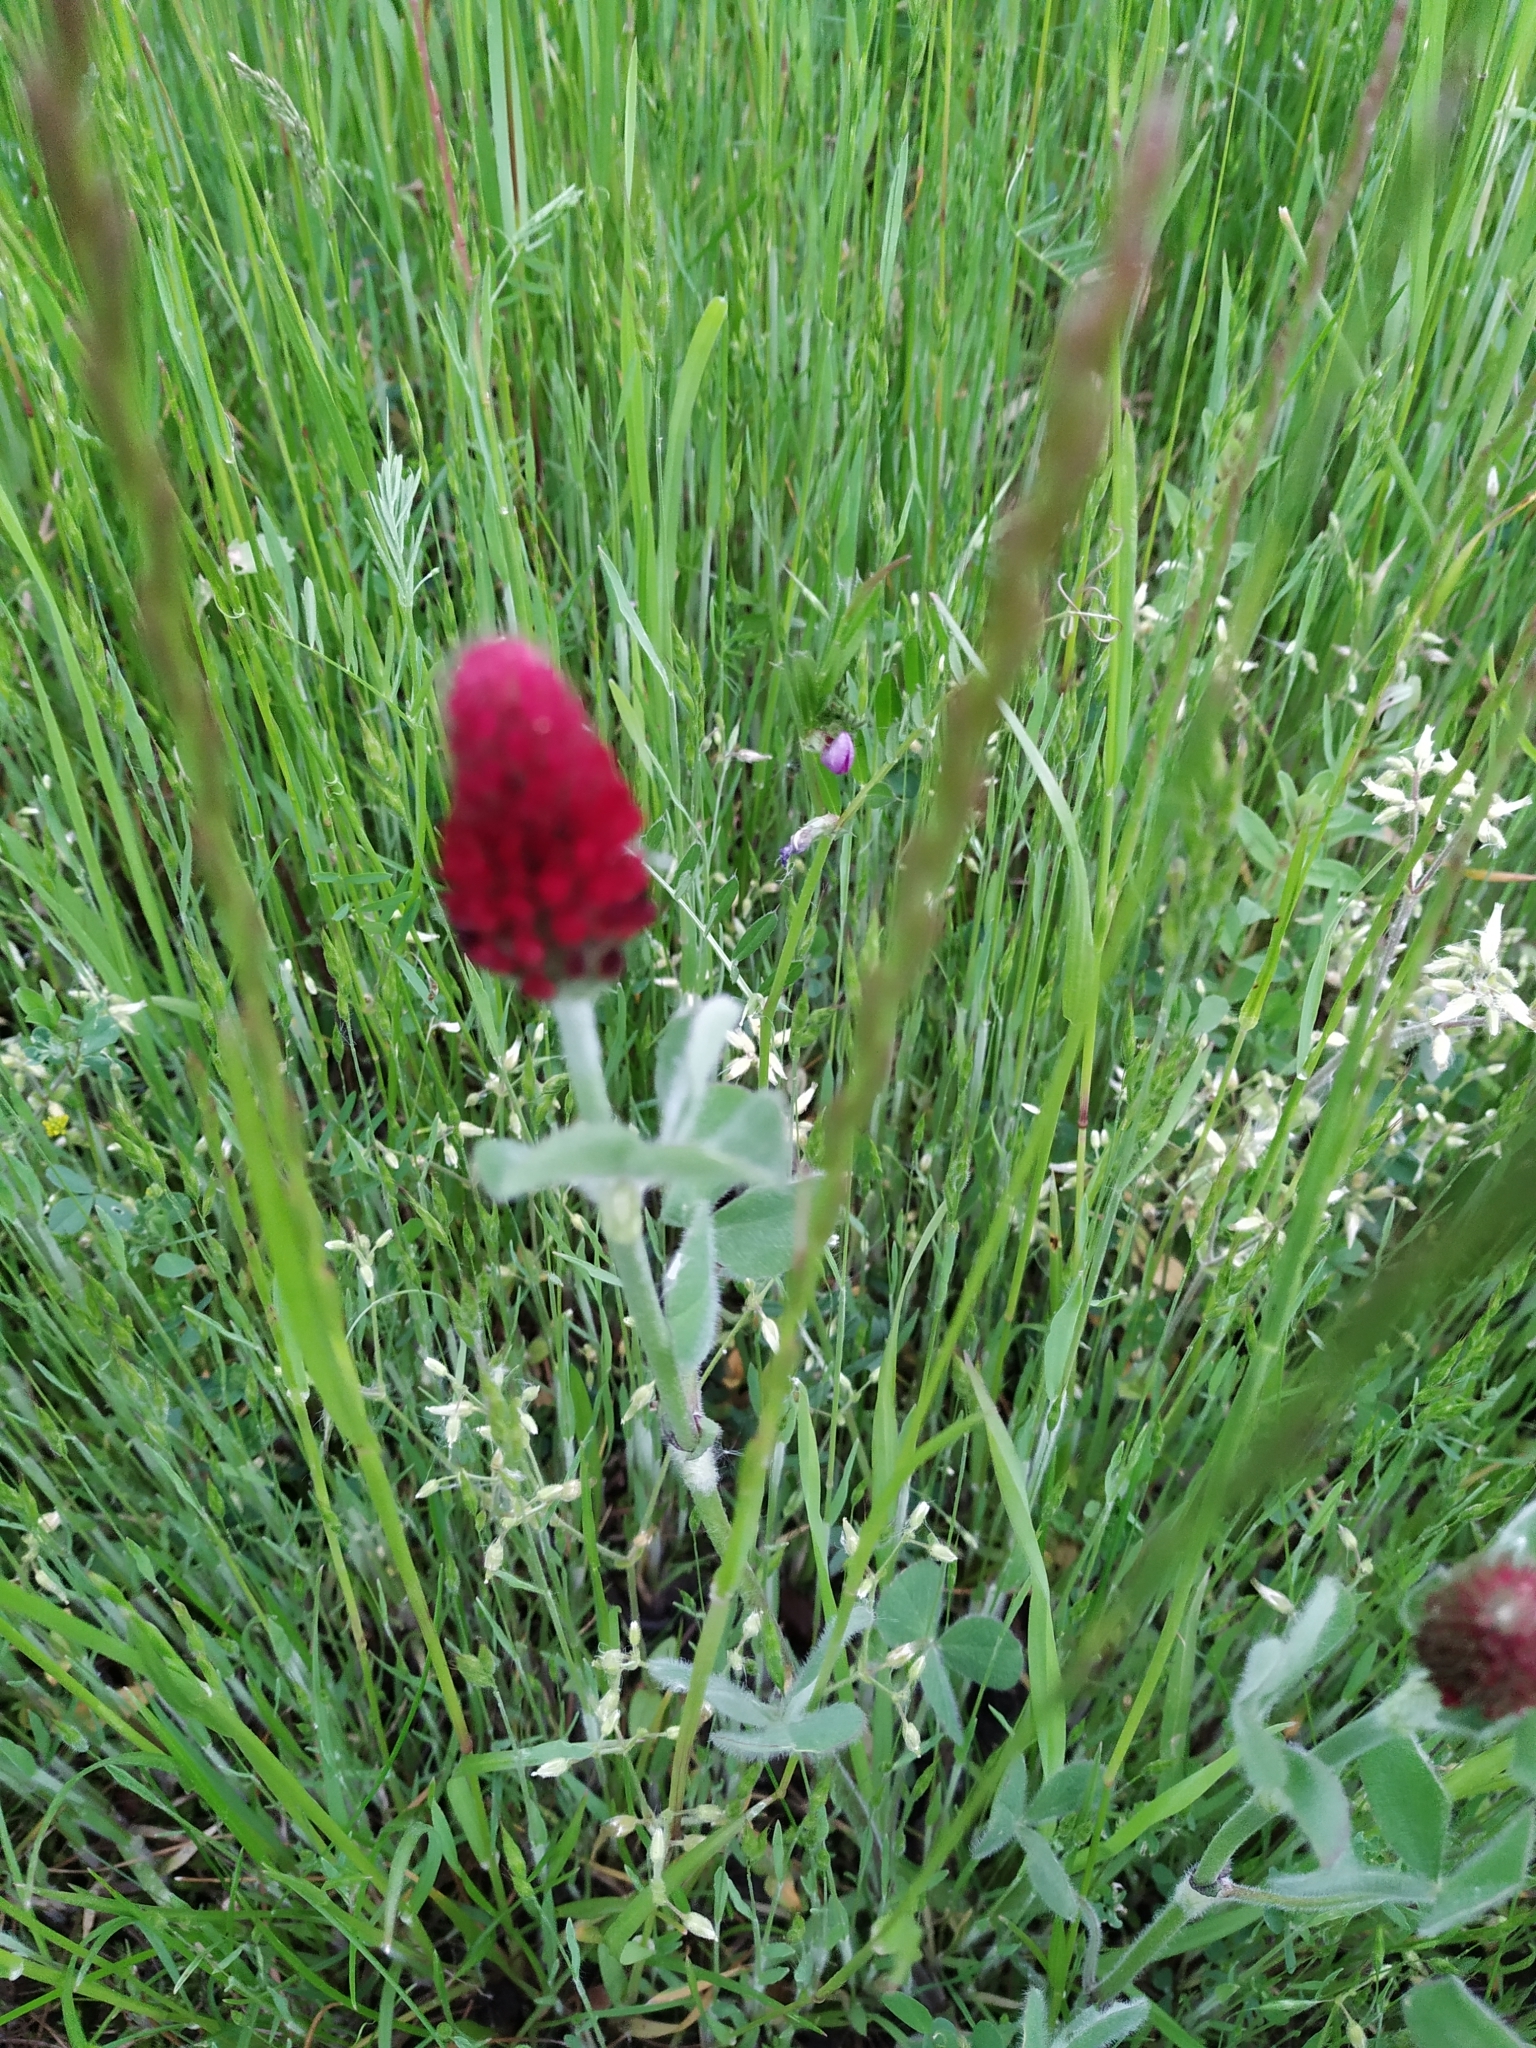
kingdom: Plantae
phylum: Tracheophyta
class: Magnoliopsida
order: Fabales
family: Fabaceae
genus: Trifolium
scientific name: Trifolium incarnatum
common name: Crimson clover
